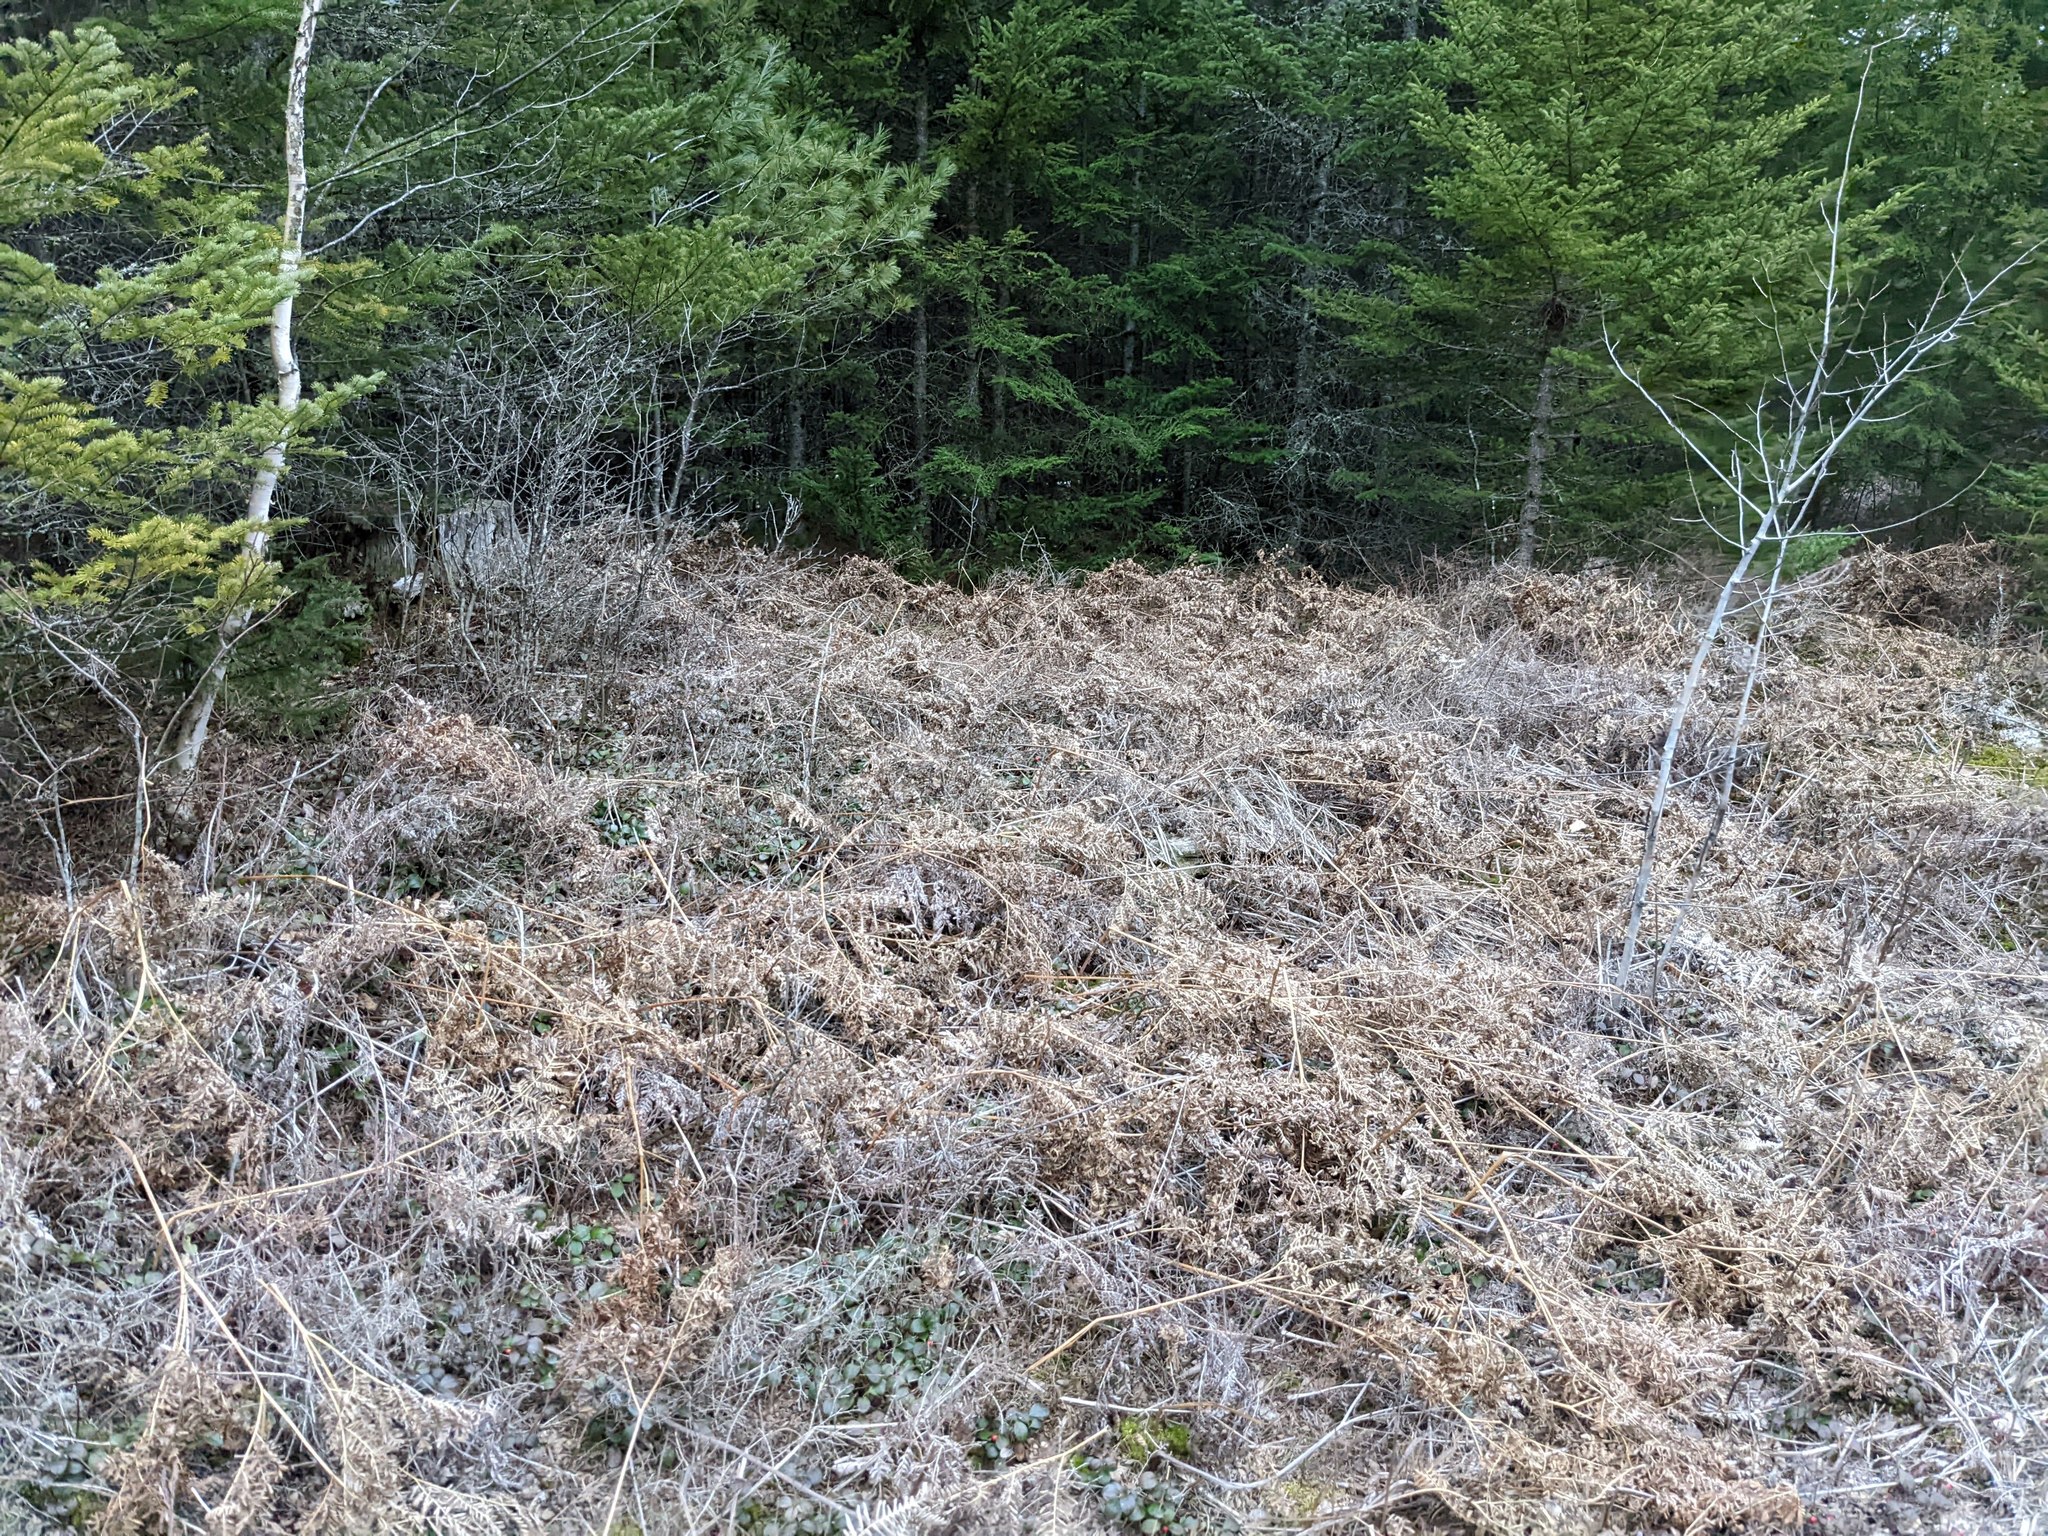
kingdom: Plantae
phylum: Tracheophyta
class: Polypodiopsida
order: Polypodiales
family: Dennstaedtiaceae
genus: Pteridium
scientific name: Pteridium aquilinum
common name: Bracken
